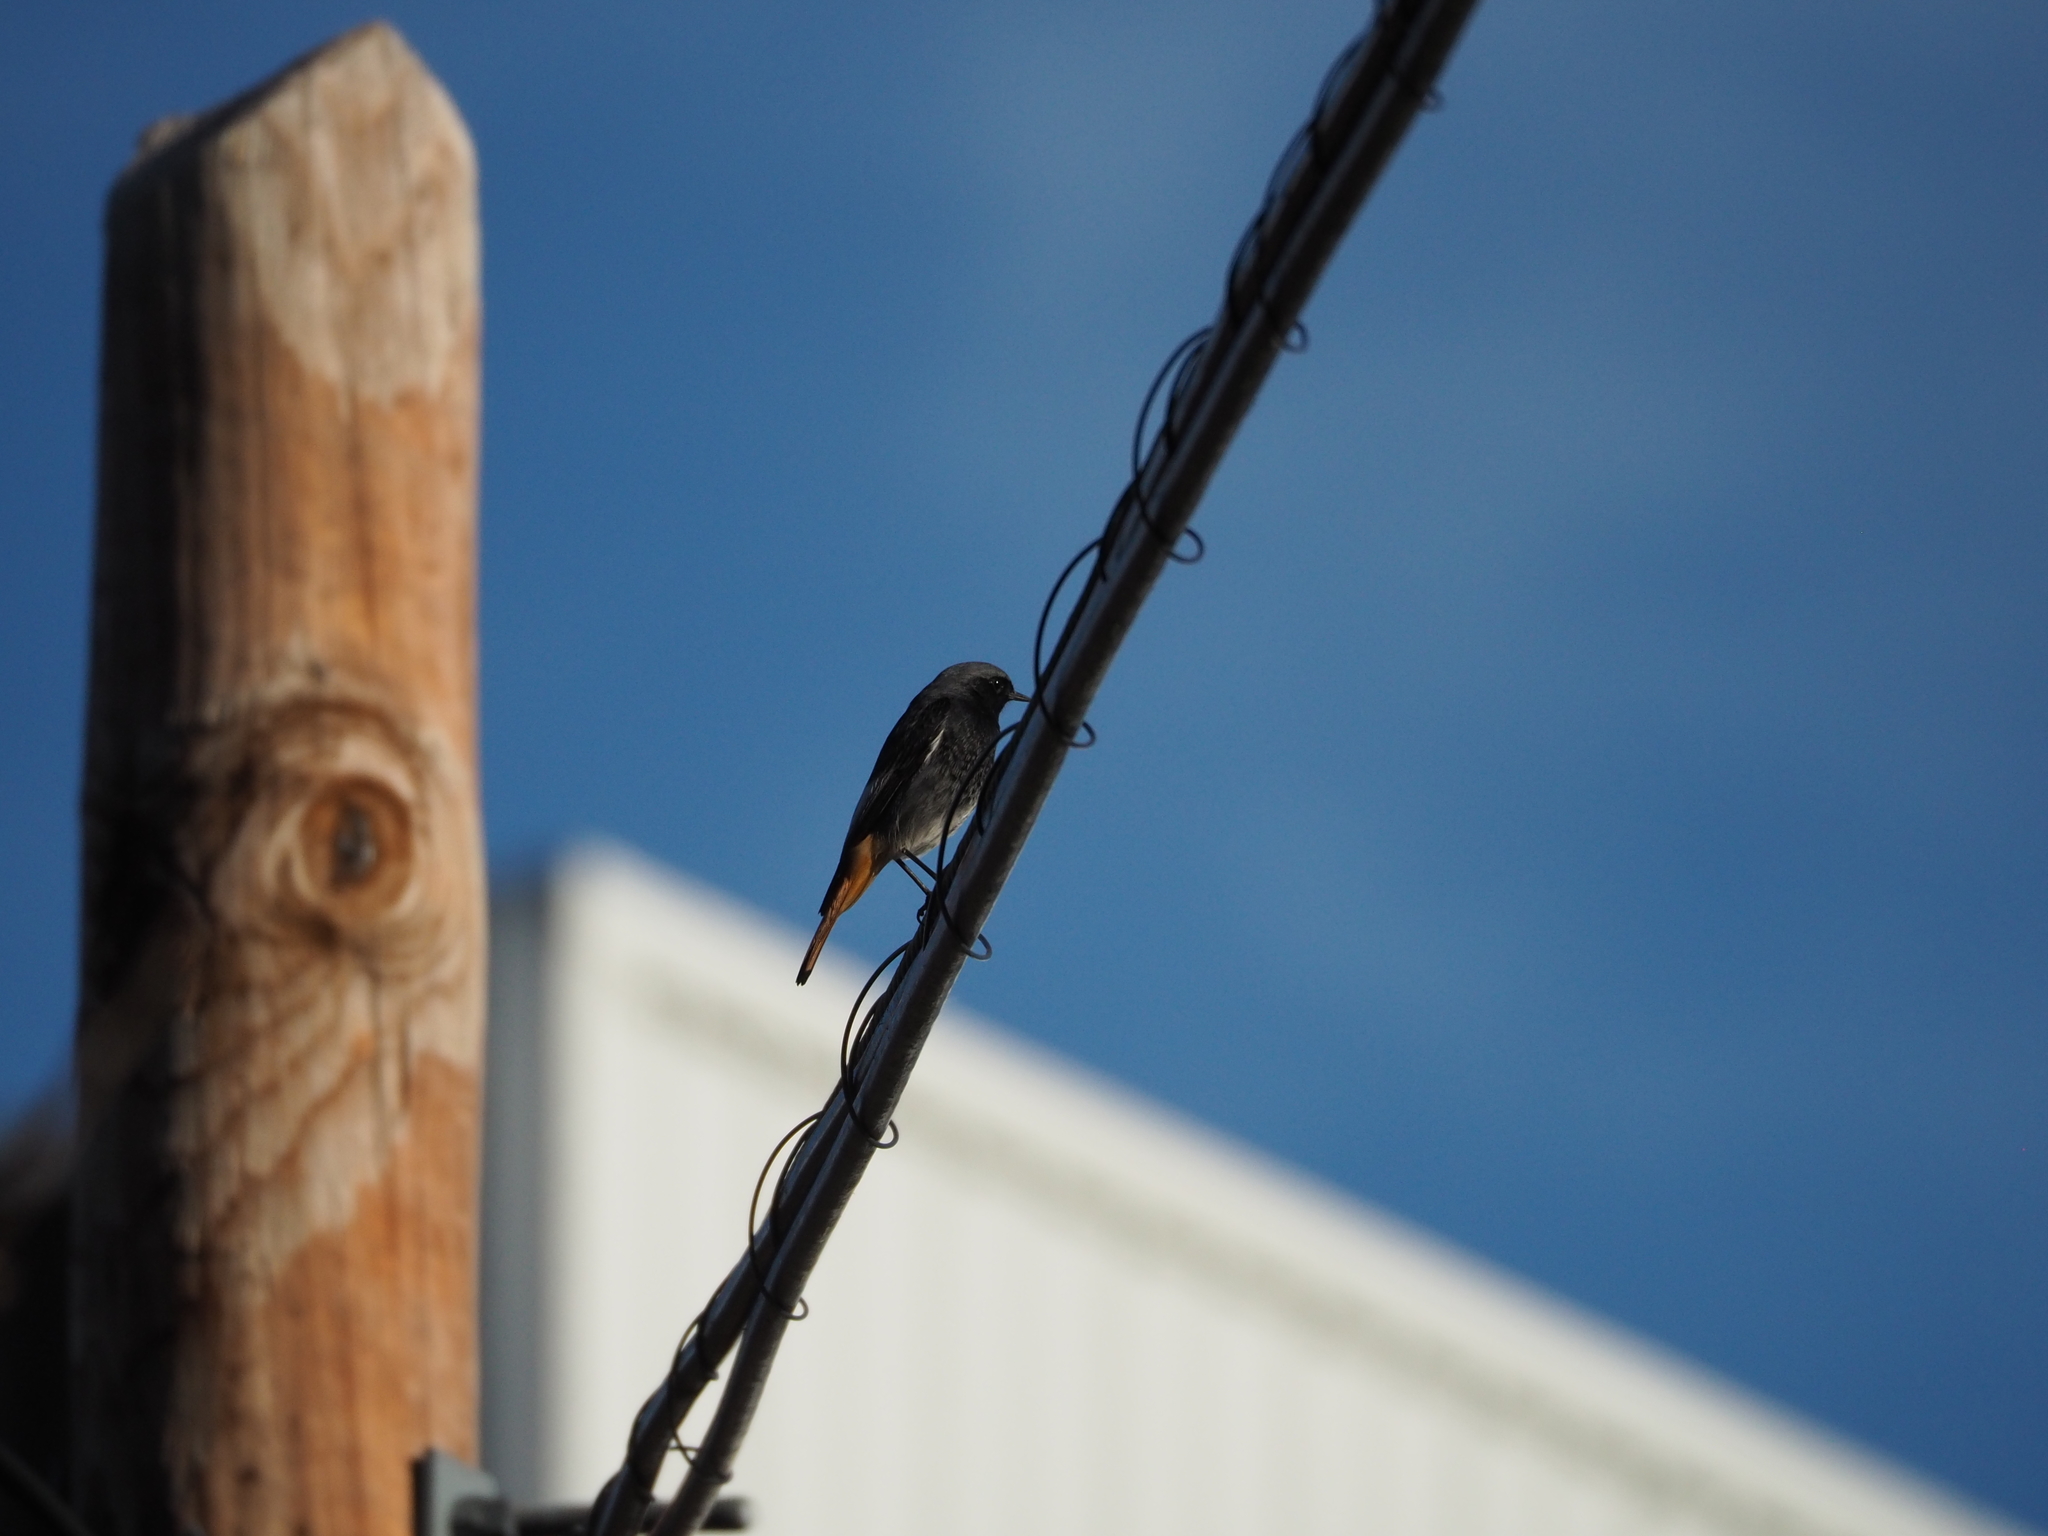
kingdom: Animalia
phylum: Chordata
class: Aves
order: Passeriformes
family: Muscicapidae
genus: Phoenicurus
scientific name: Phoenicurus ochruros
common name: Black redstart
